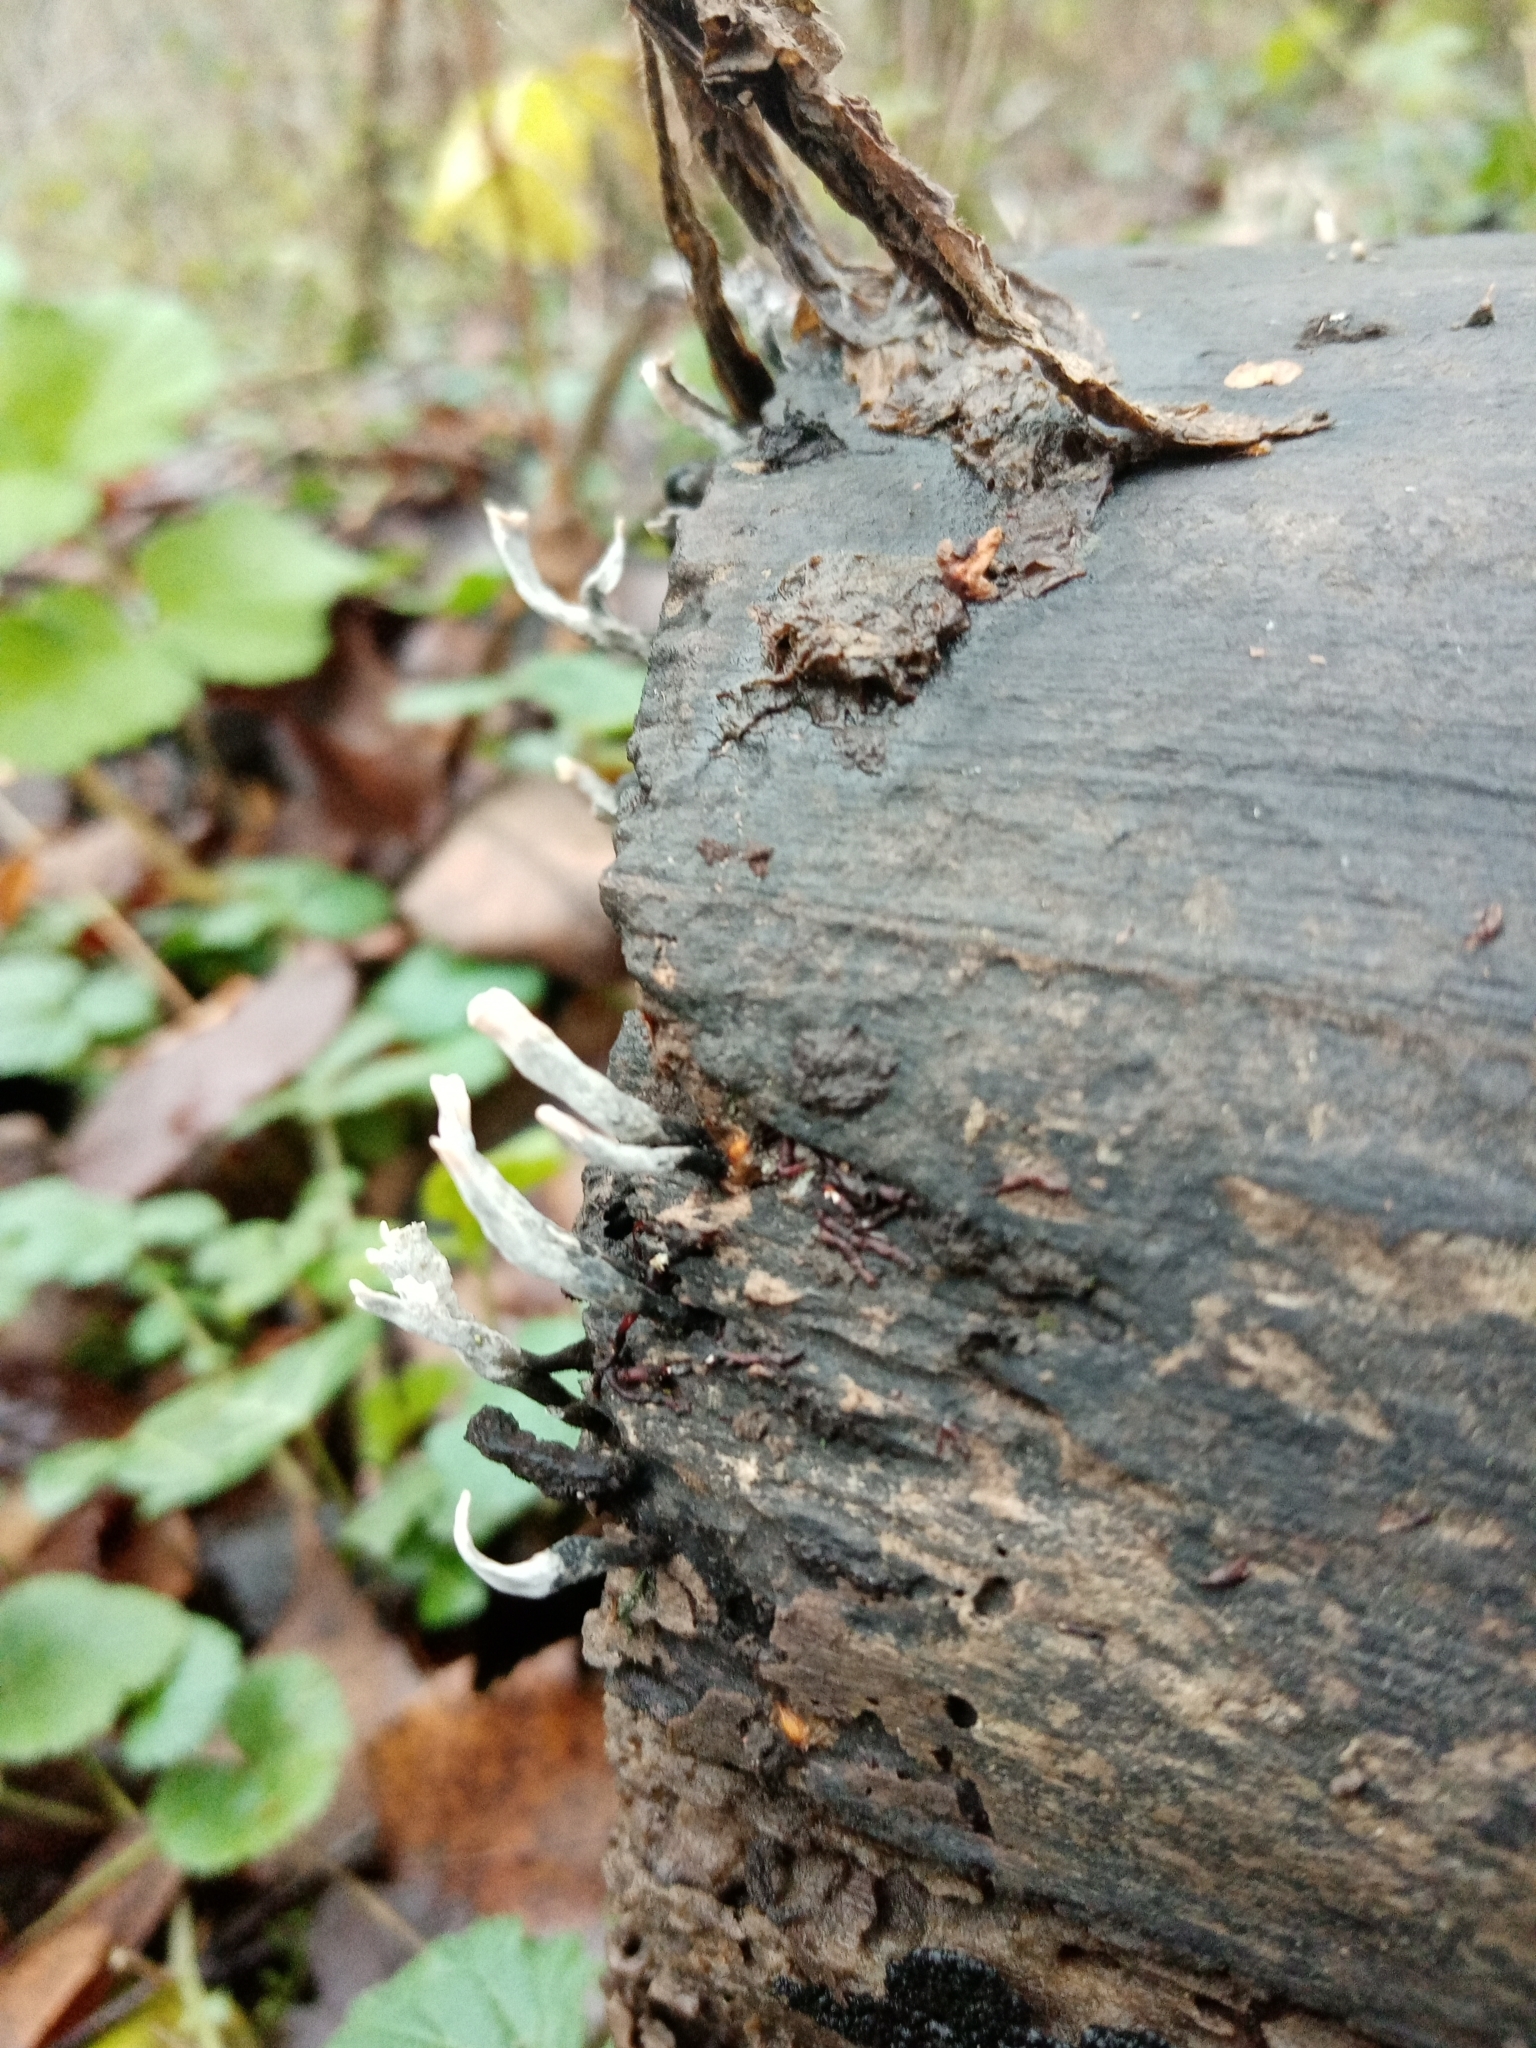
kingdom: Fungi
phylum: Ascomycota
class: Sordariomycetes
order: Xylariales
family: Xylariaceae
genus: Xylaria
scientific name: Xylaria hypoxylon
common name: Candle-snuff fungus
